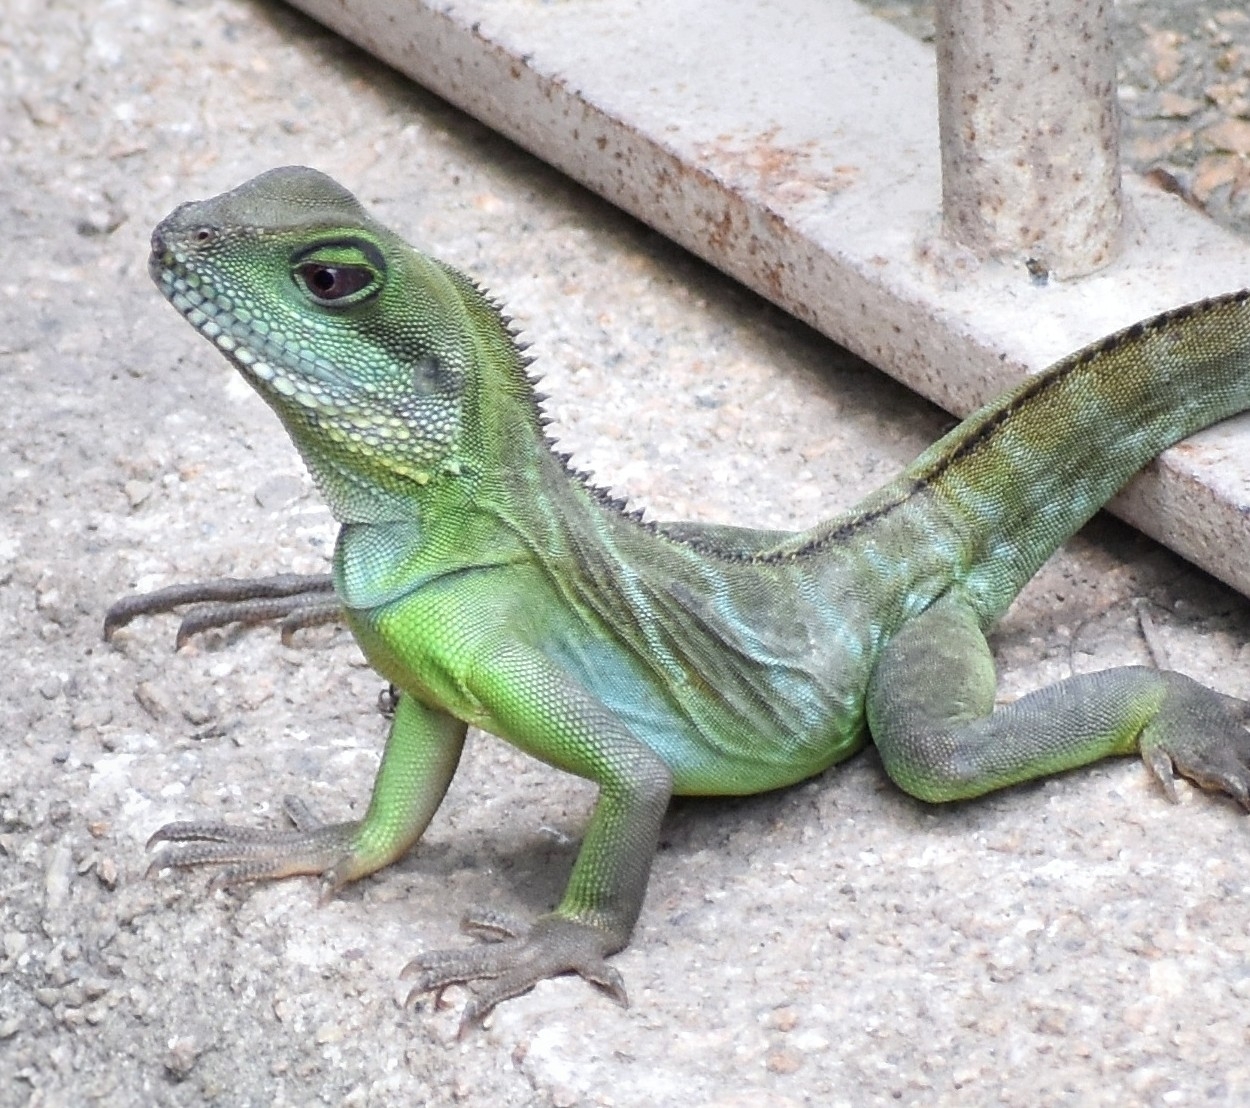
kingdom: Animalia
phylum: Chordata
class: Squamata
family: Agamidae
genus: Physignathus
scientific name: Physignathus cocincinus
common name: Asian water dragon
